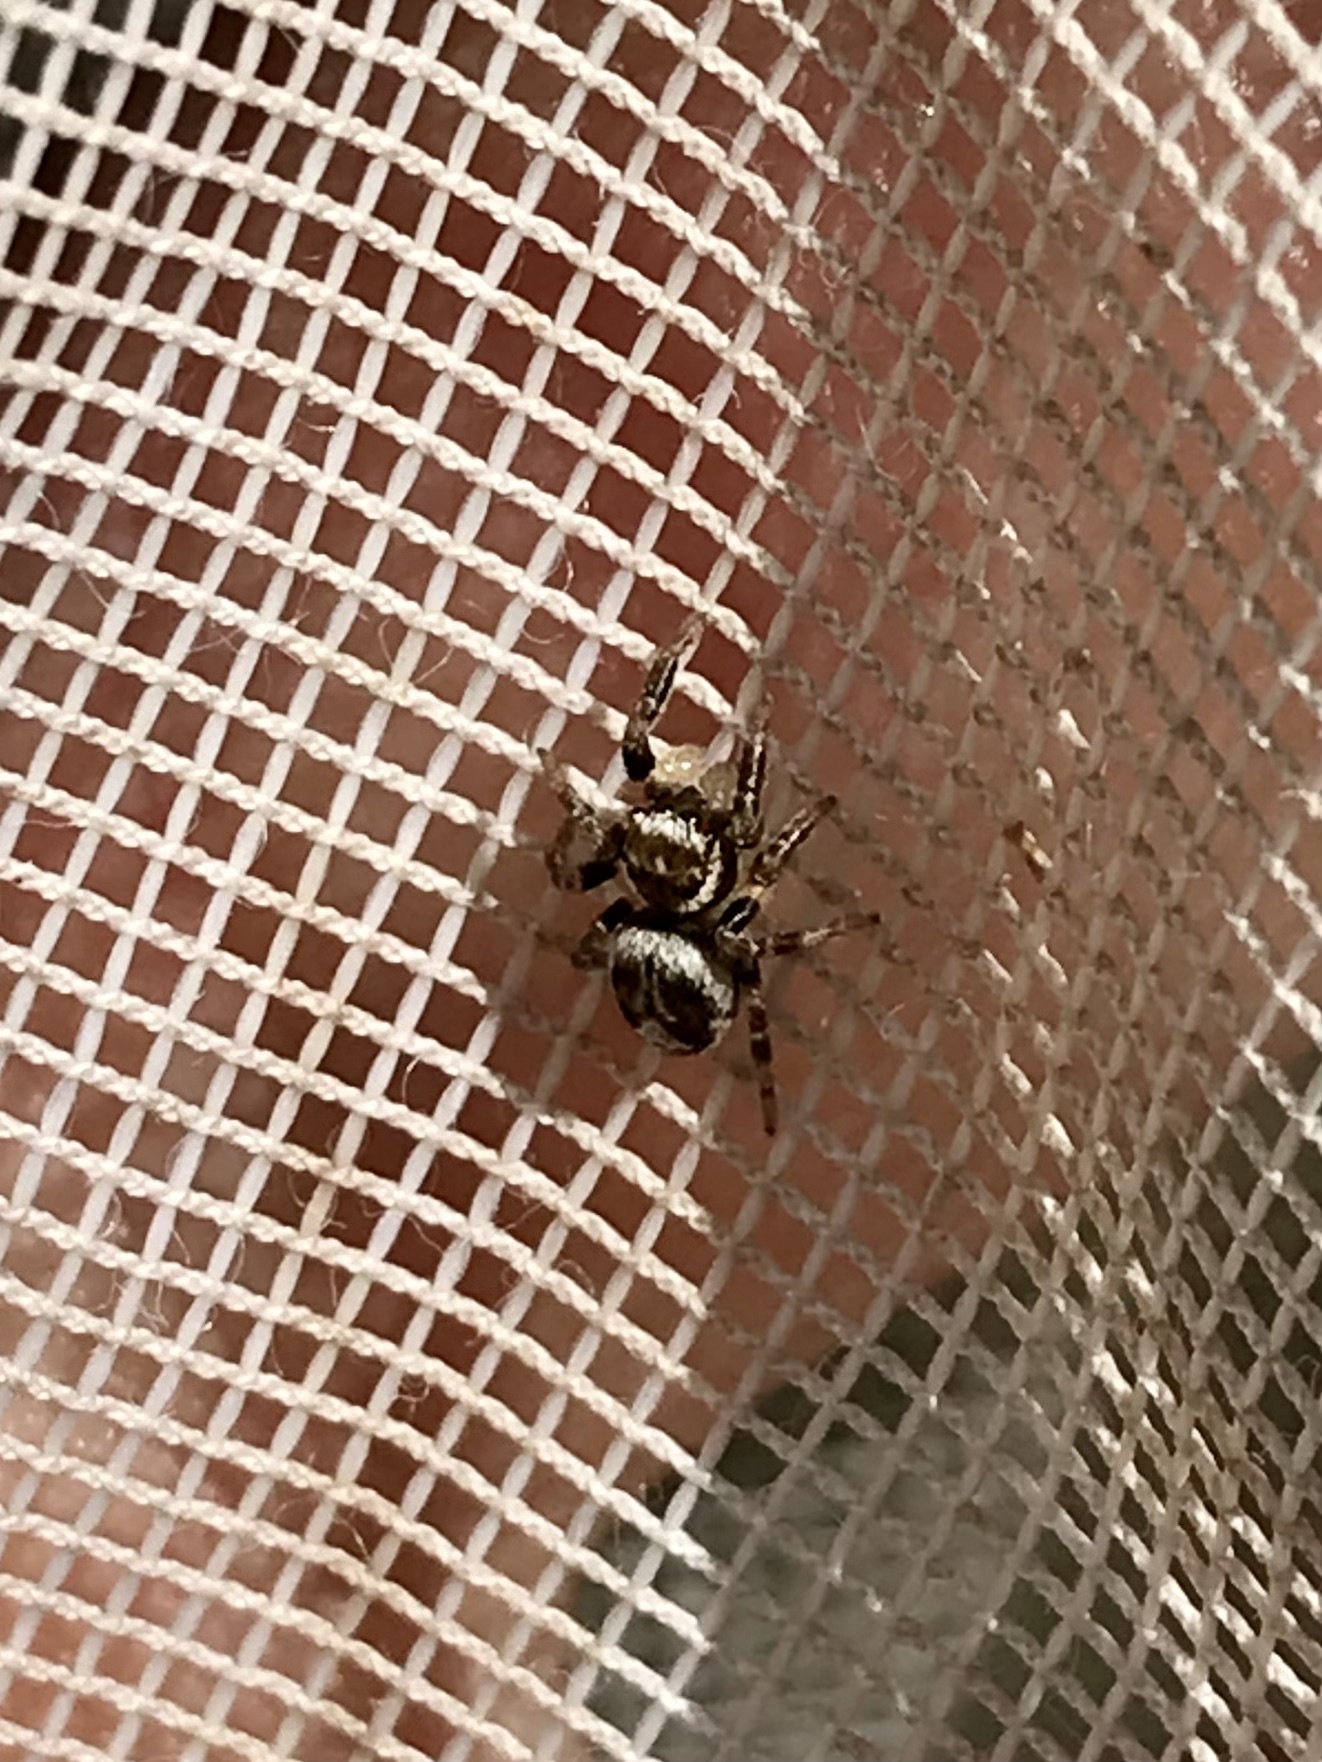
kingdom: Animalia
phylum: Arthropoda
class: Arachnida
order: Araneae
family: Salticidae
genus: Evarcha
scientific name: Evarcha hoyi
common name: Hoy's jumping spider
